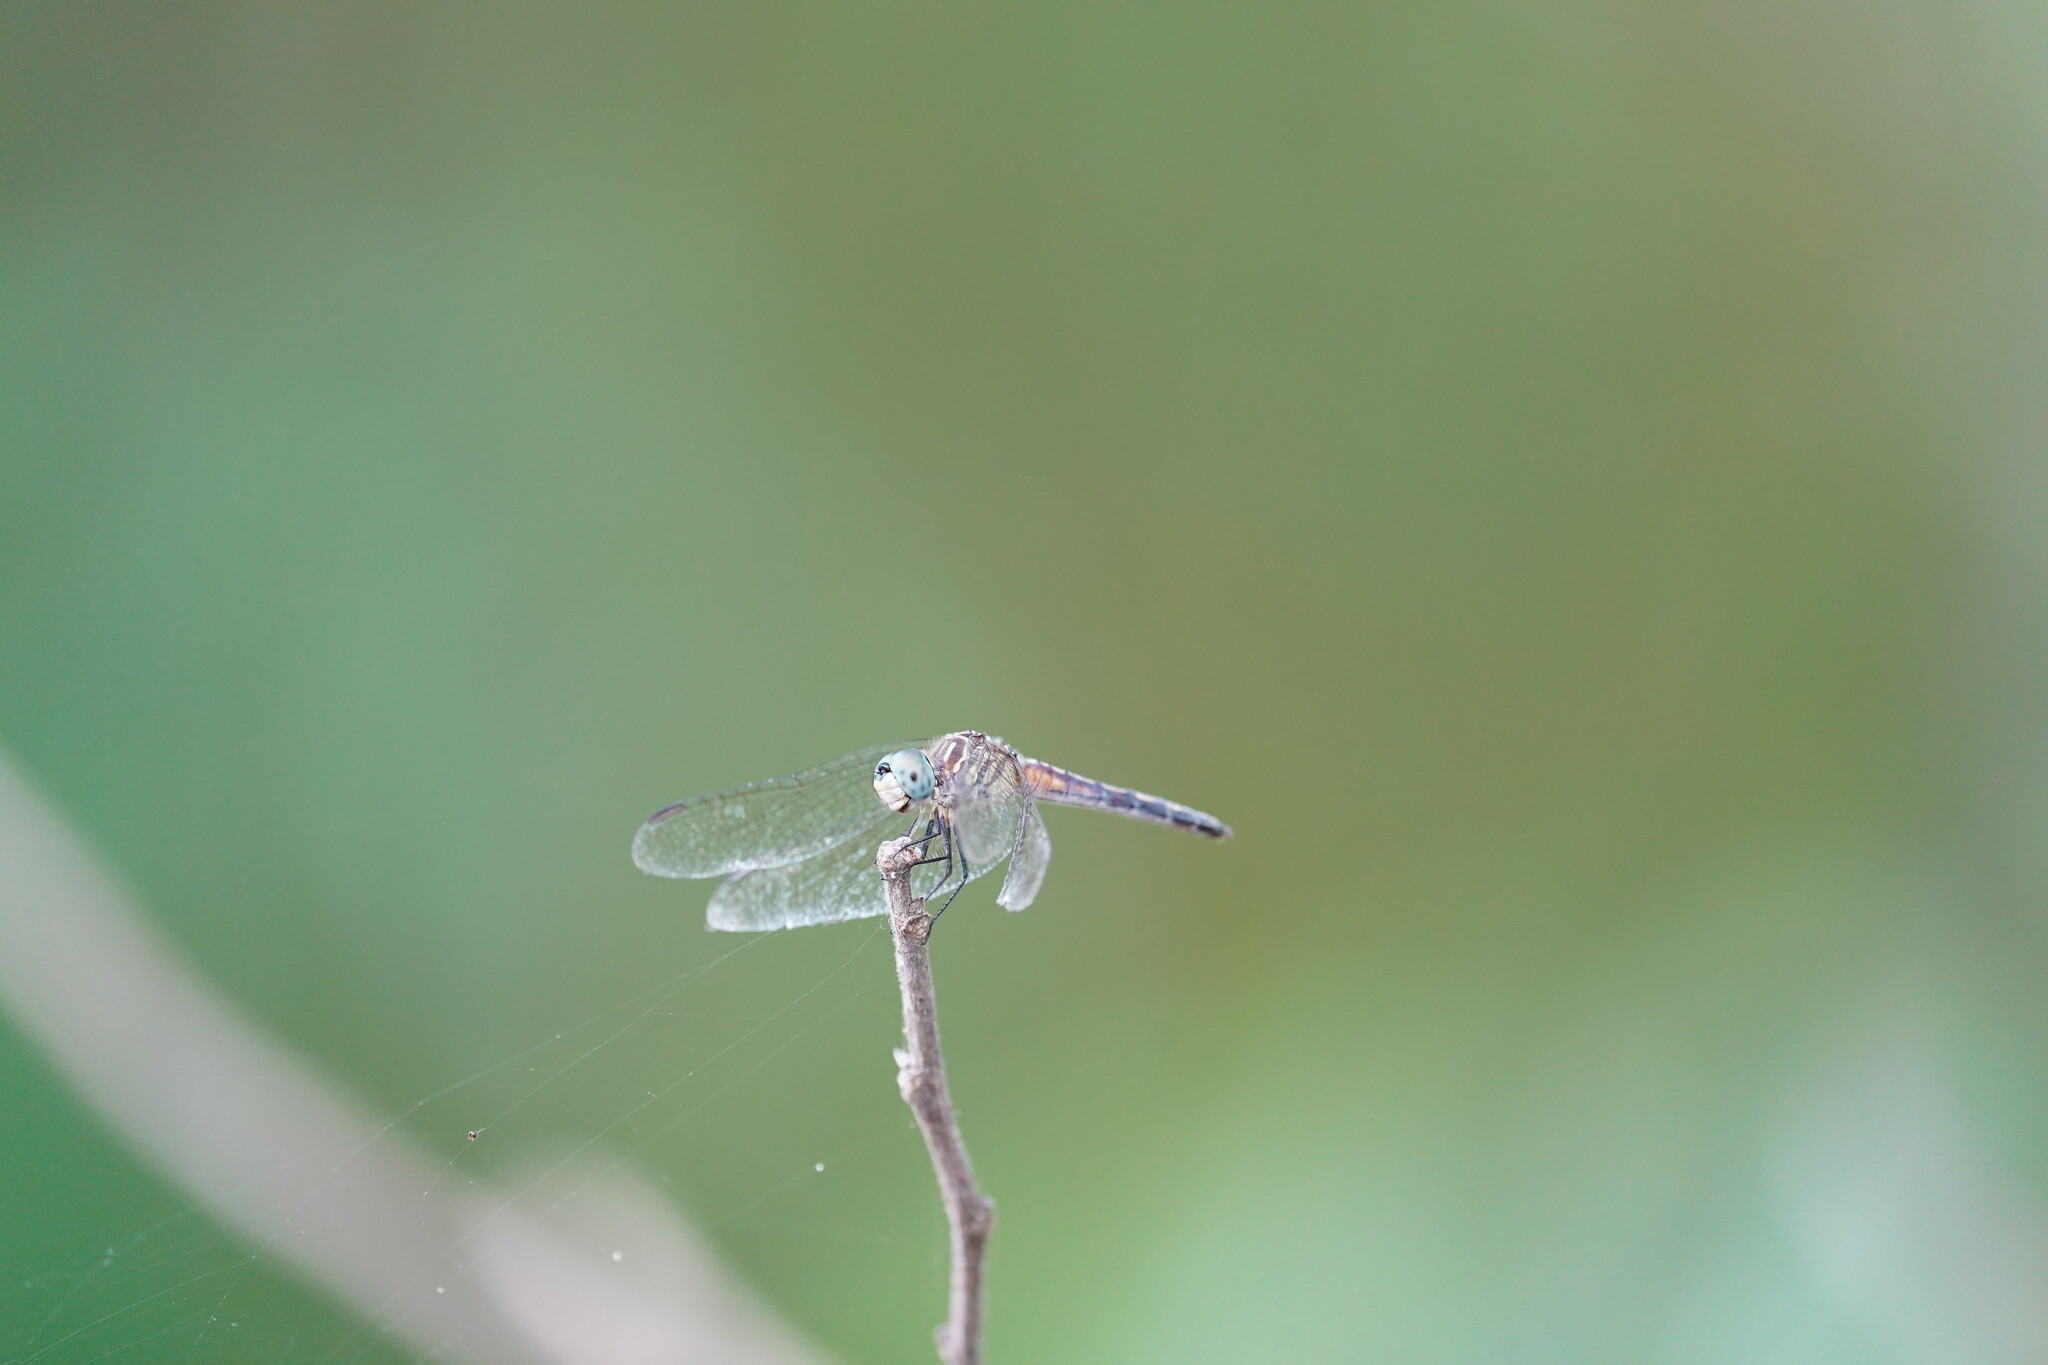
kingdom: Animalia
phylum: Arthropoda
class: Insecta
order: Odonata
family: Libellulidae
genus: Pachydiplax
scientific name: Pachydiplax longipennis
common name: Blue dasher
